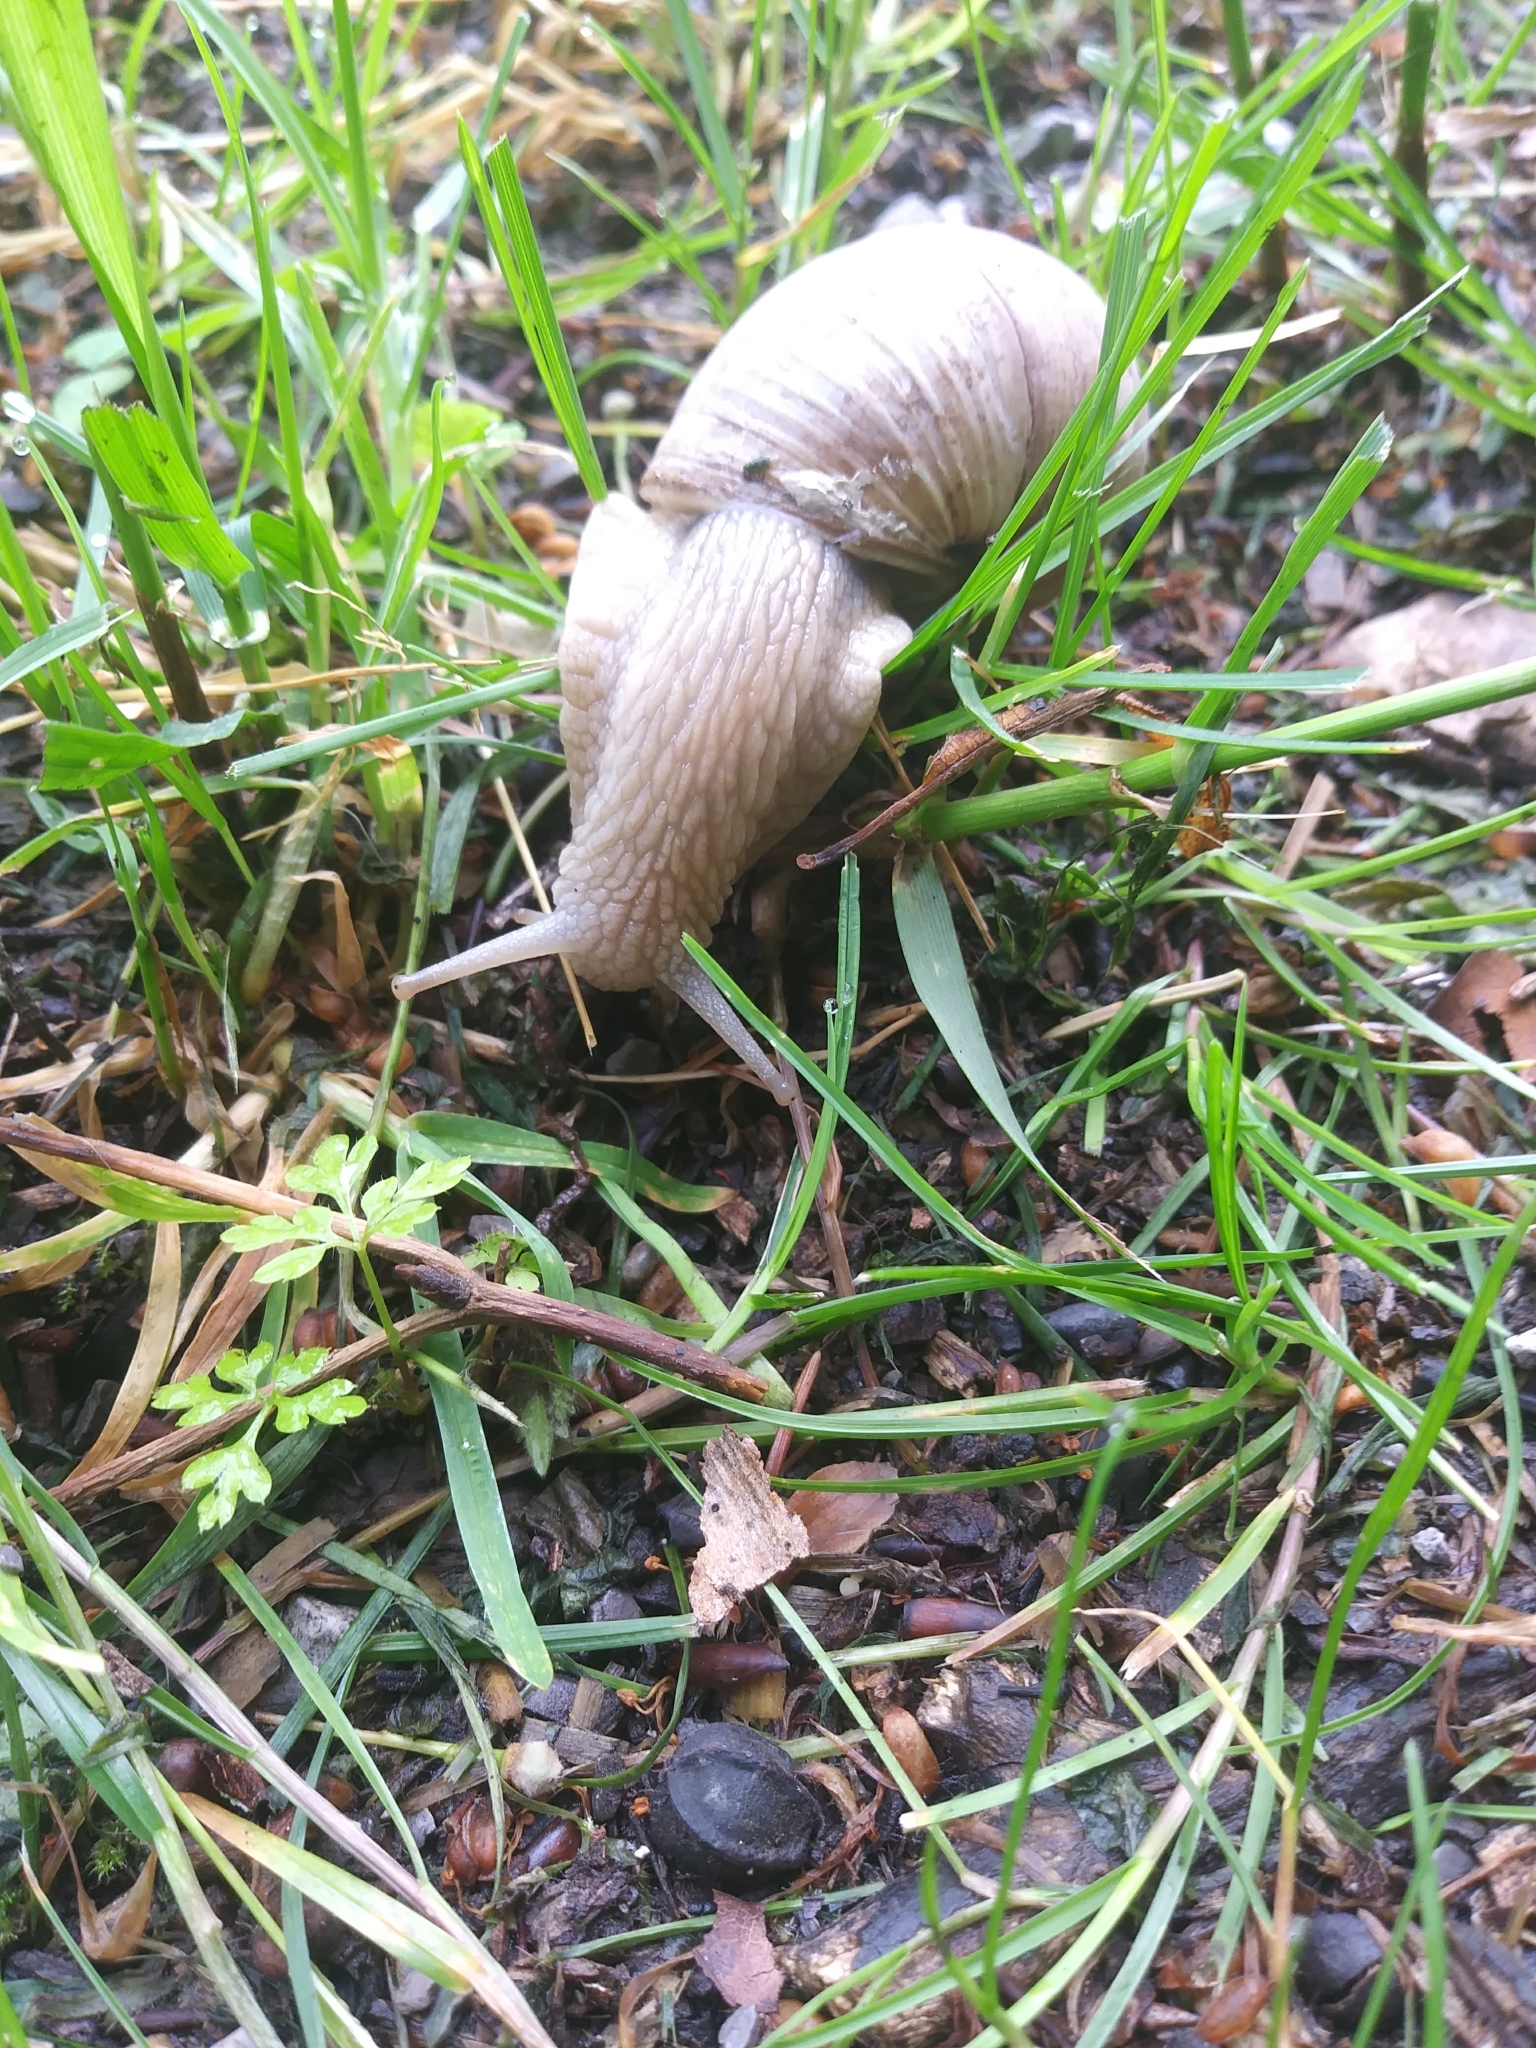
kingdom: Animalia
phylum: Mollusca
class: Gastropoda
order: Stylommatophora
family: Helicidae
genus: Helix
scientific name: Helix pomatia
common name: Roman snail
